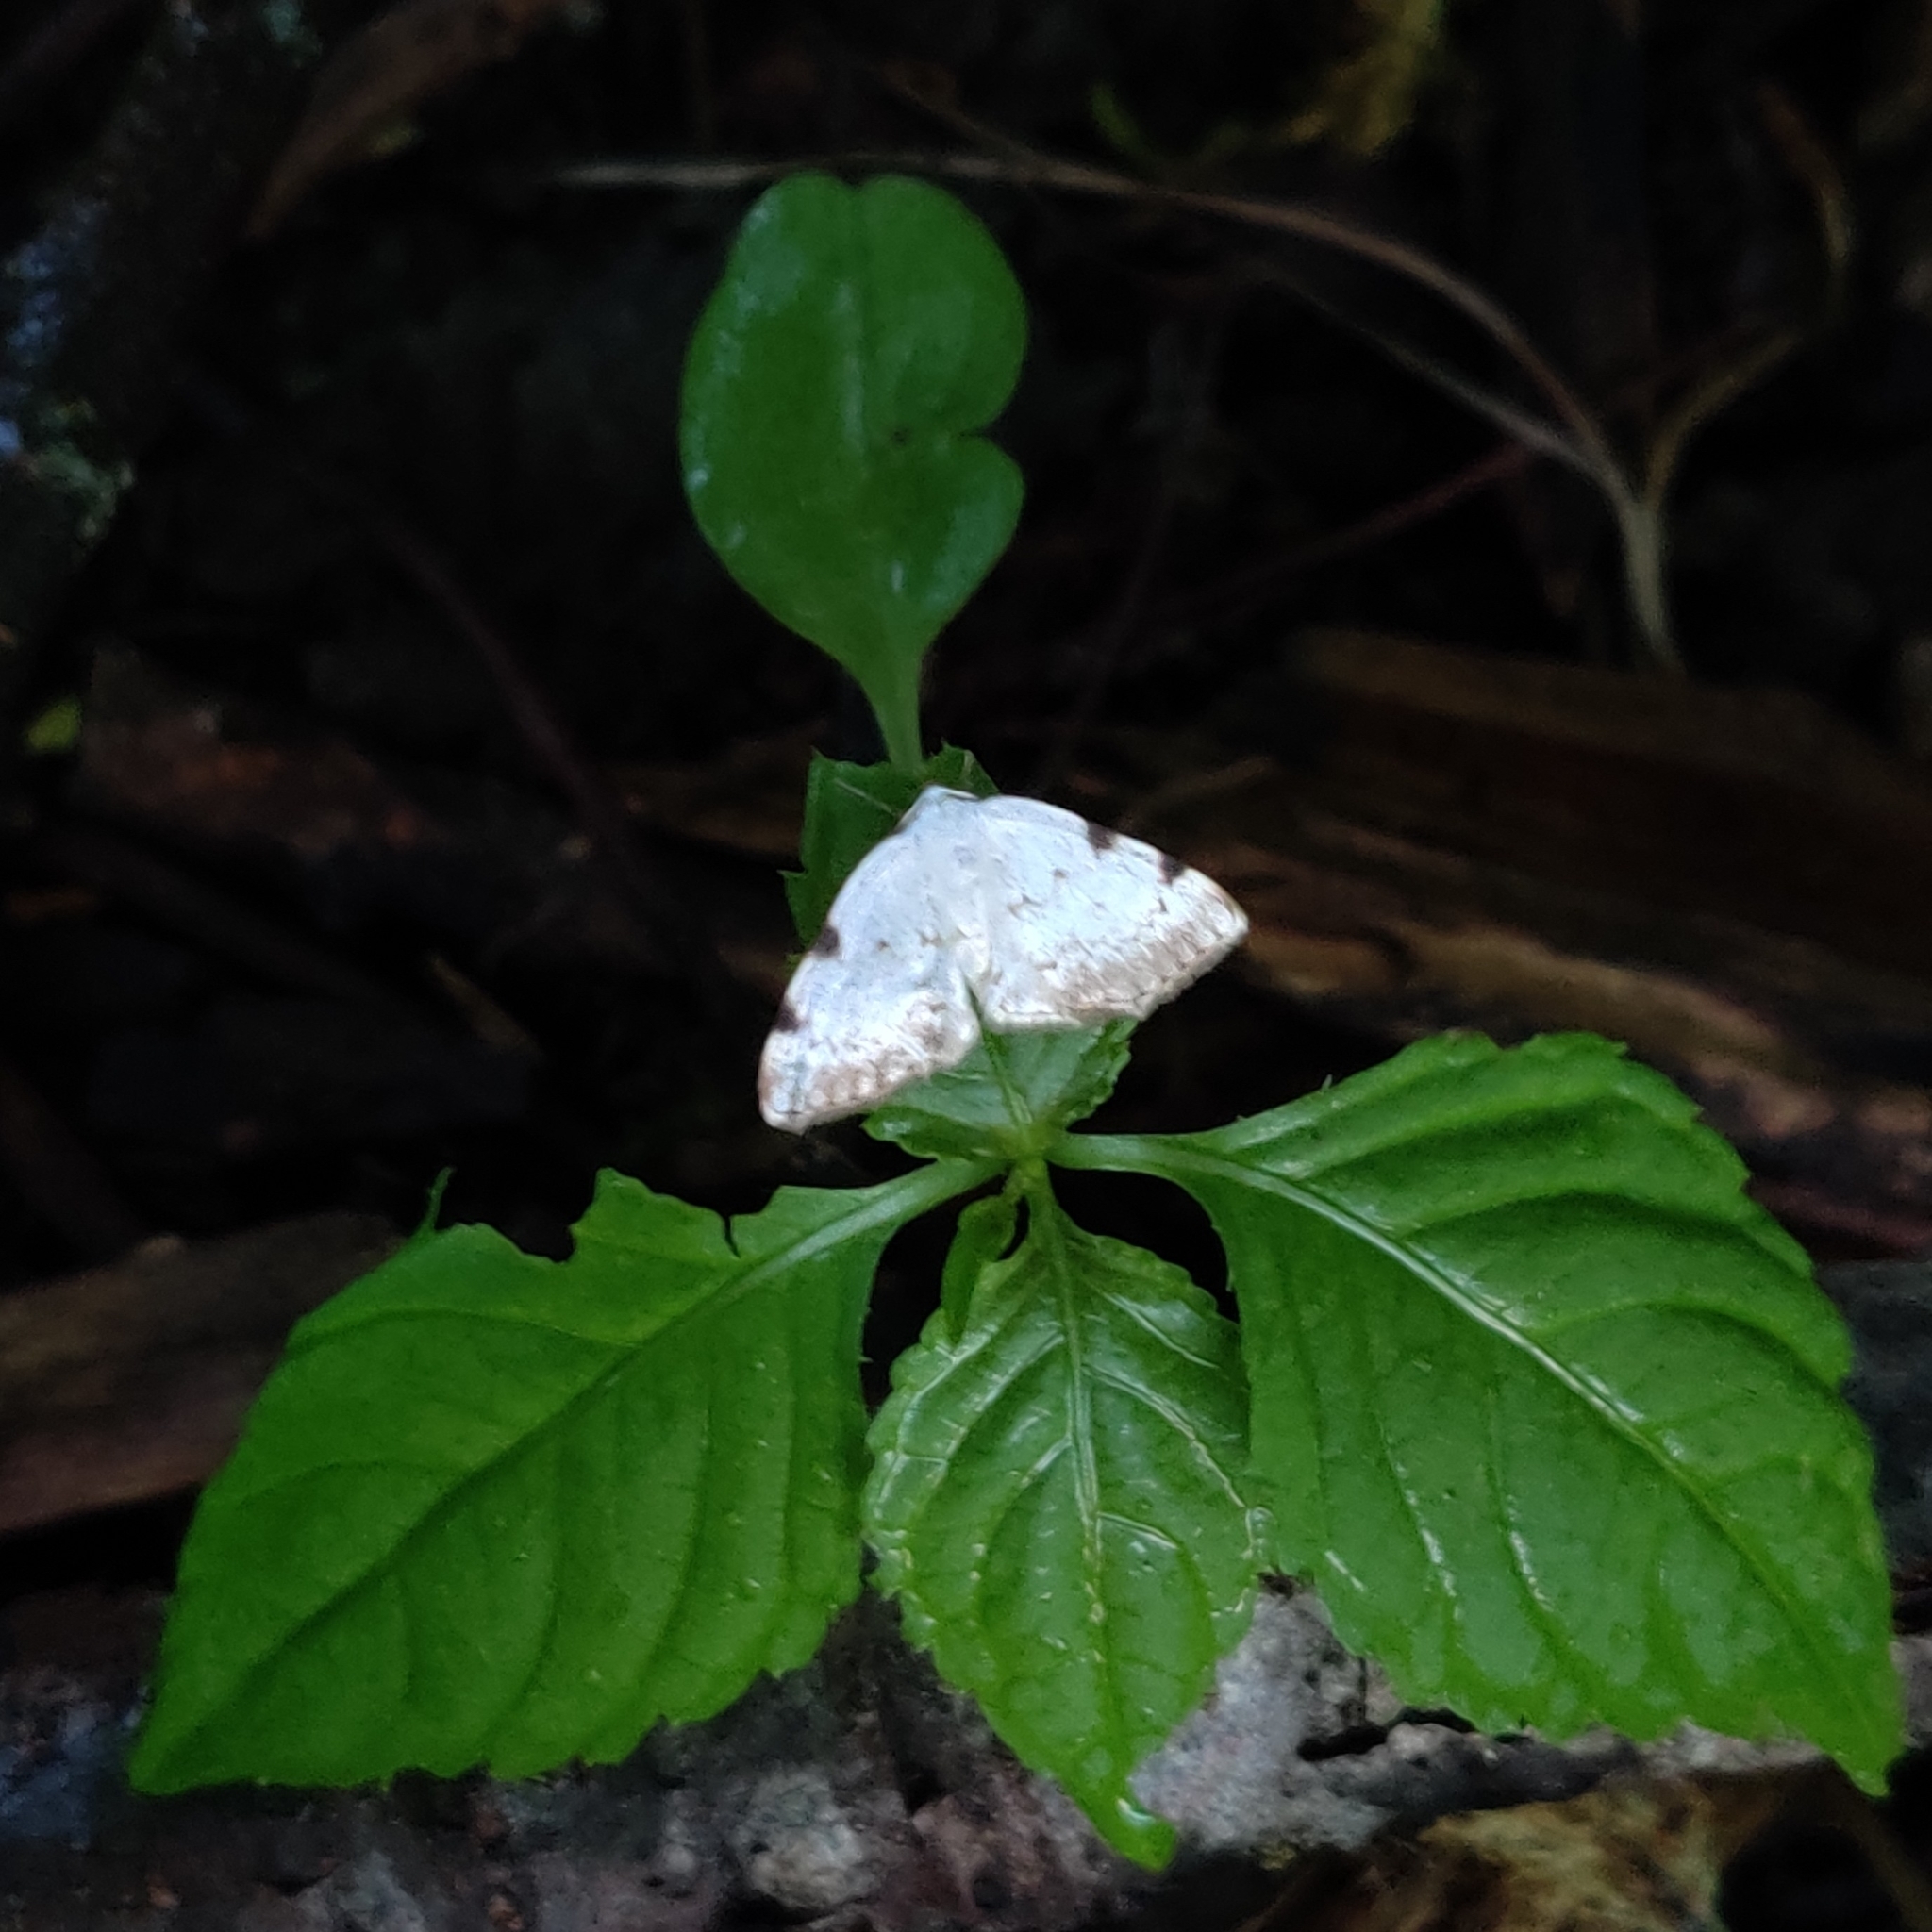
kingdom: Animalia
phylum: Arthropoda
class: Insecta
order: Lepidoptera
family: Geometridae
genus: Lomographa
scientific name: Lomographa bimaculata
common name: White-pinion spotted
